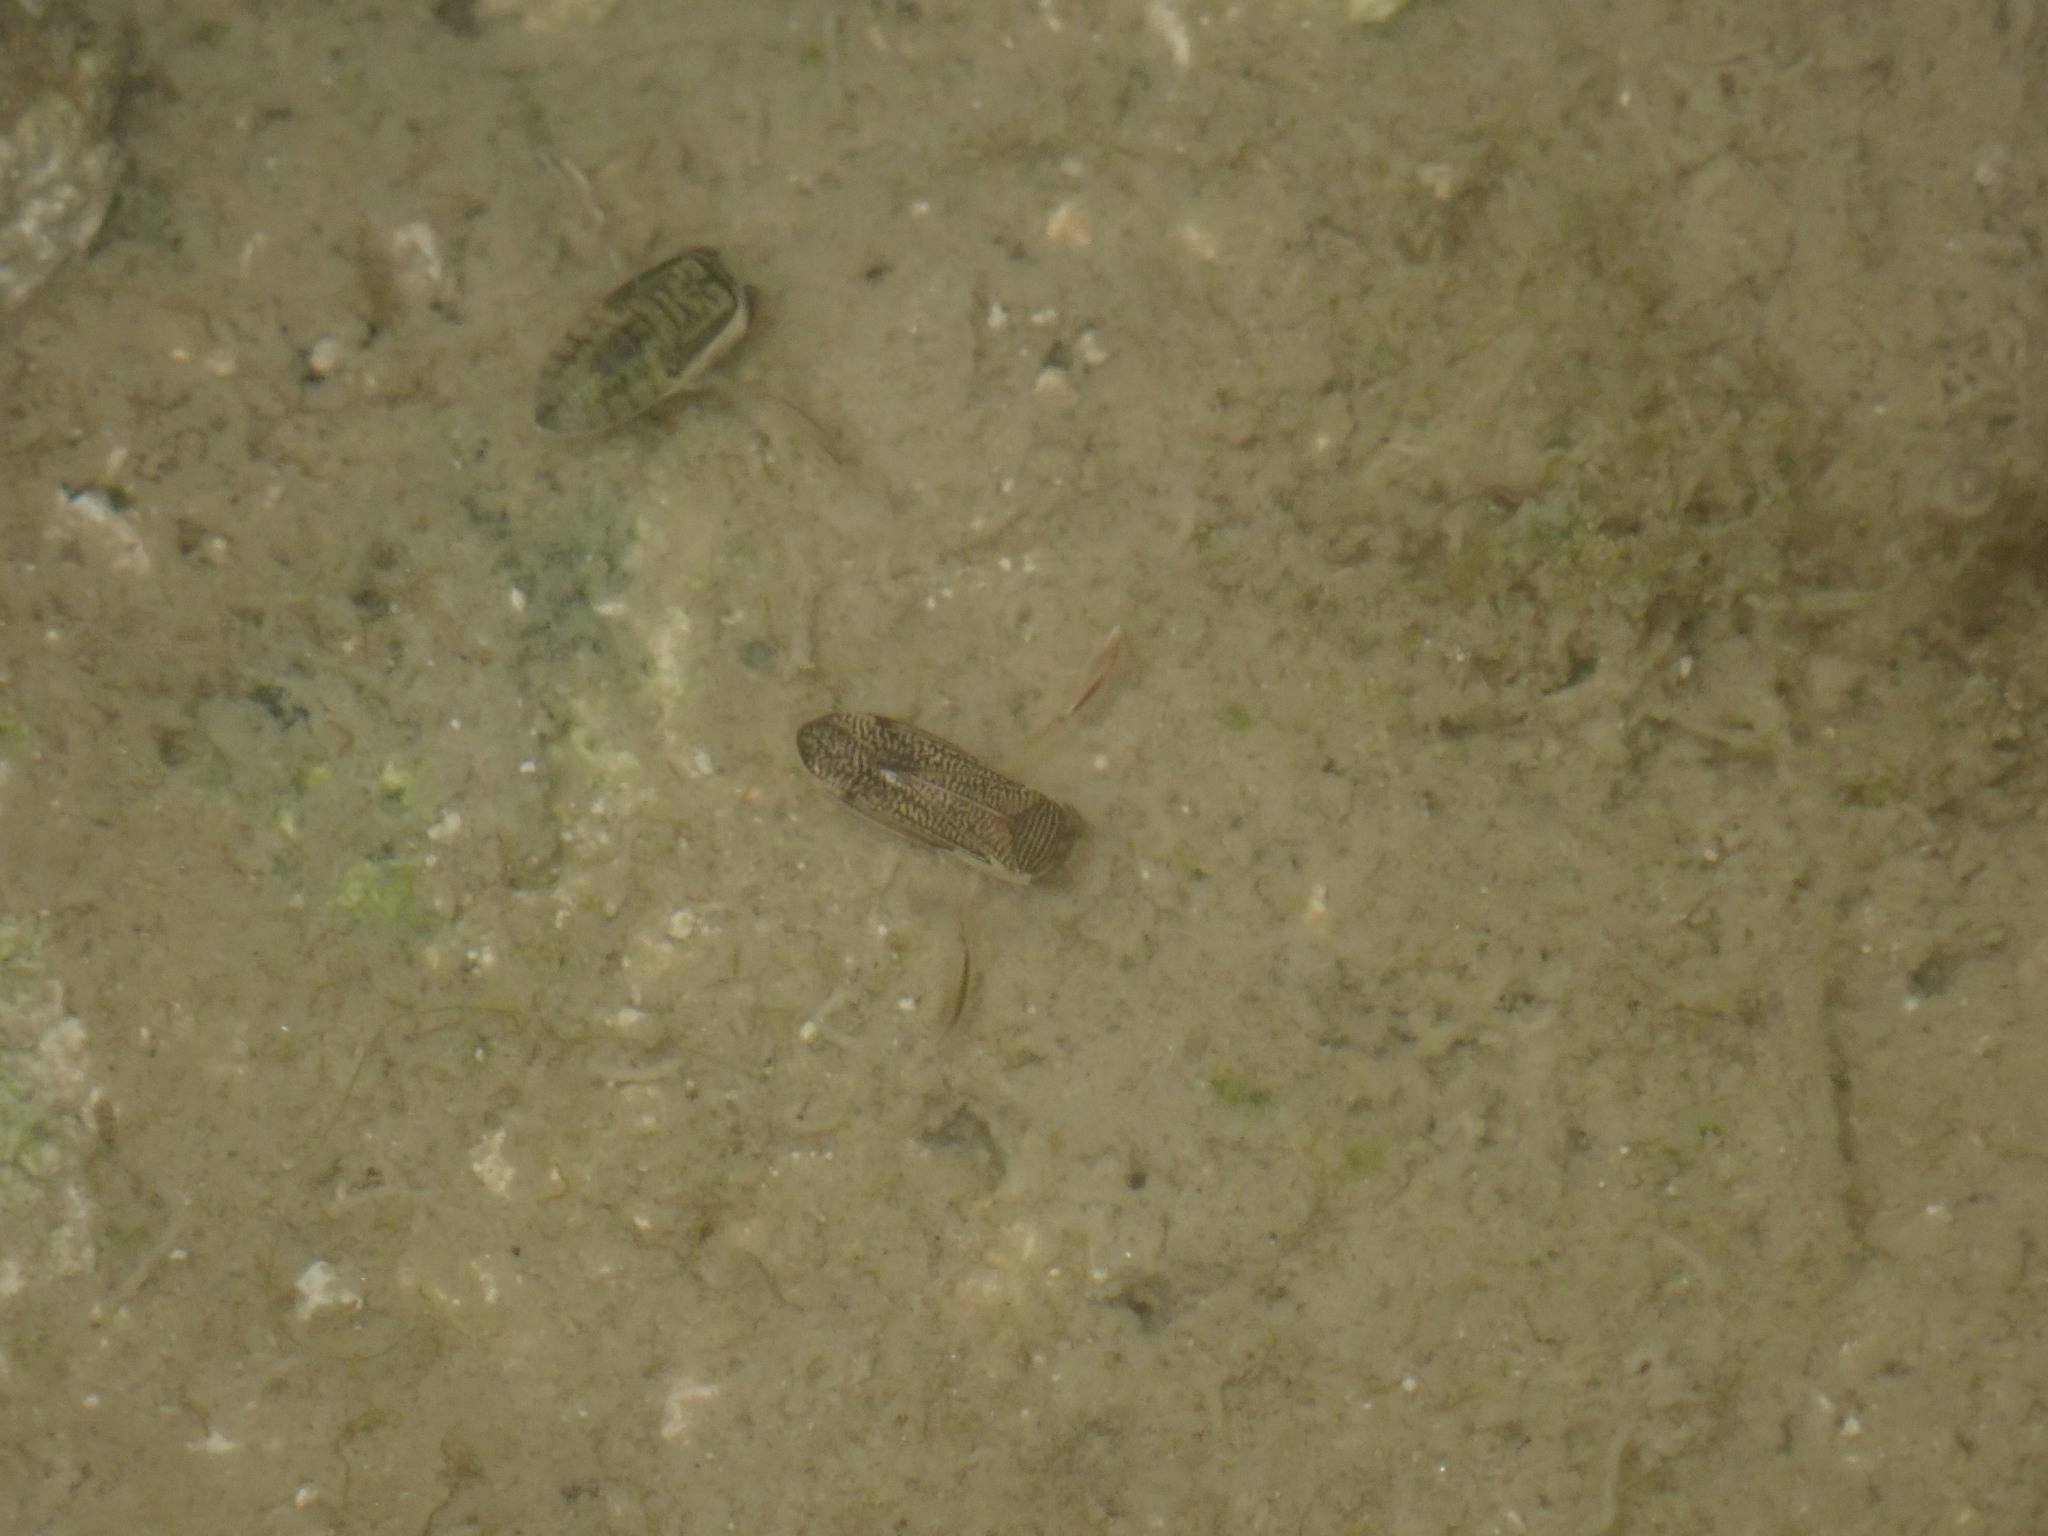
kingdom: Animalia
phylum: Arthropoda
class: Insecta
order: Hemiptera
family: Corixidae
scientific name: Corixidae
